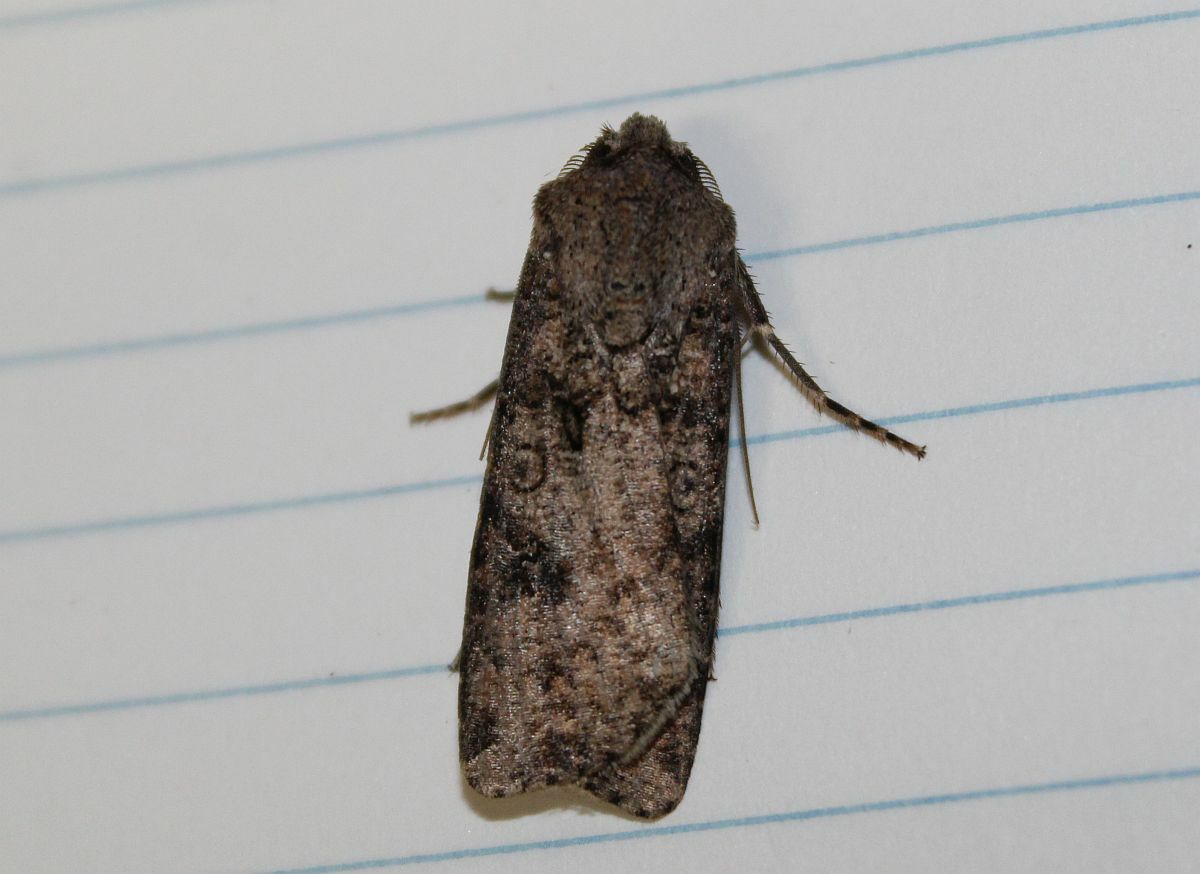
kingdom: Animalia
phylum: Arthropoda
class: Insecta
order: Lepidoptera
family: Noctuidae
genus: Agrotis
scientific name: Agrotis segetum
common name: Turnip moth
